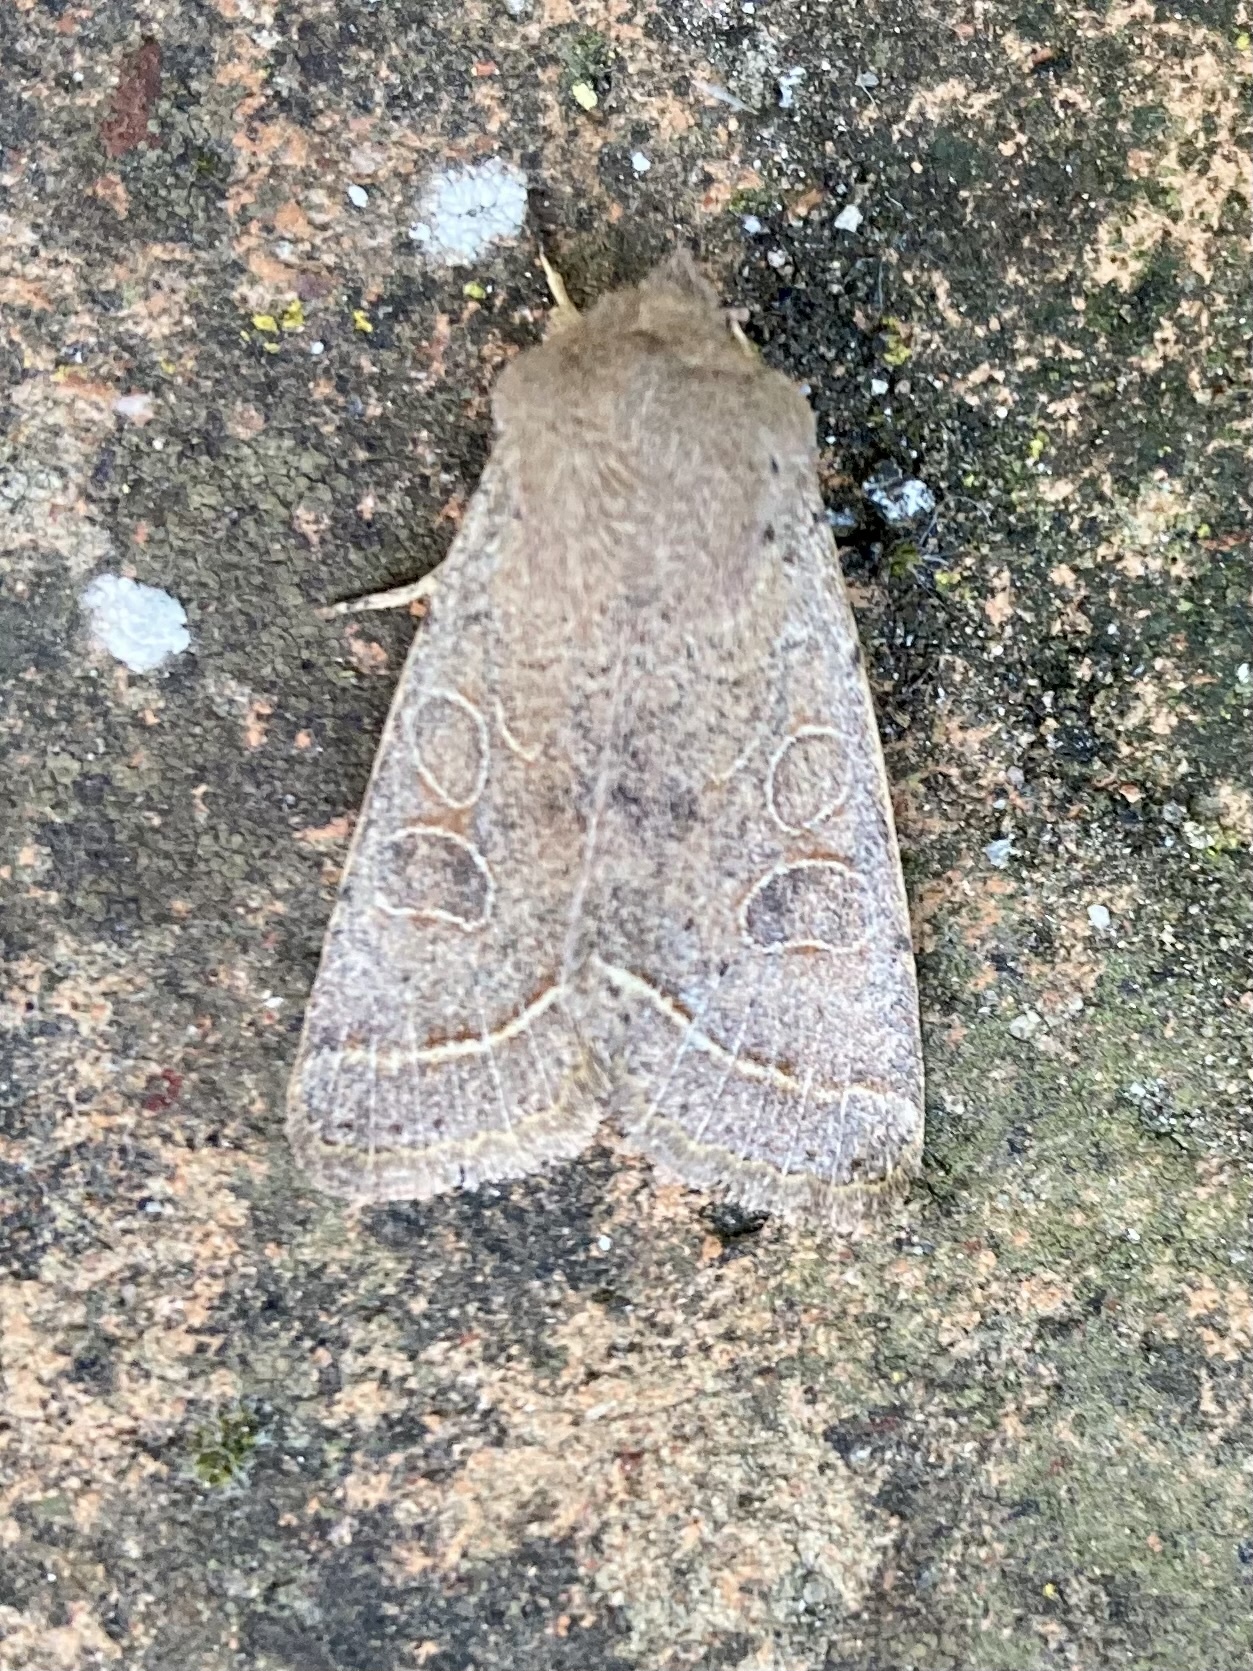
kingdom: Animalia
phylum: Arthropoda
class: Insecta
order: Lepidoptera
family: Noctuidae
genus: Orthosia
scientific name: Orthosia cerasi
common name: Common quaker
